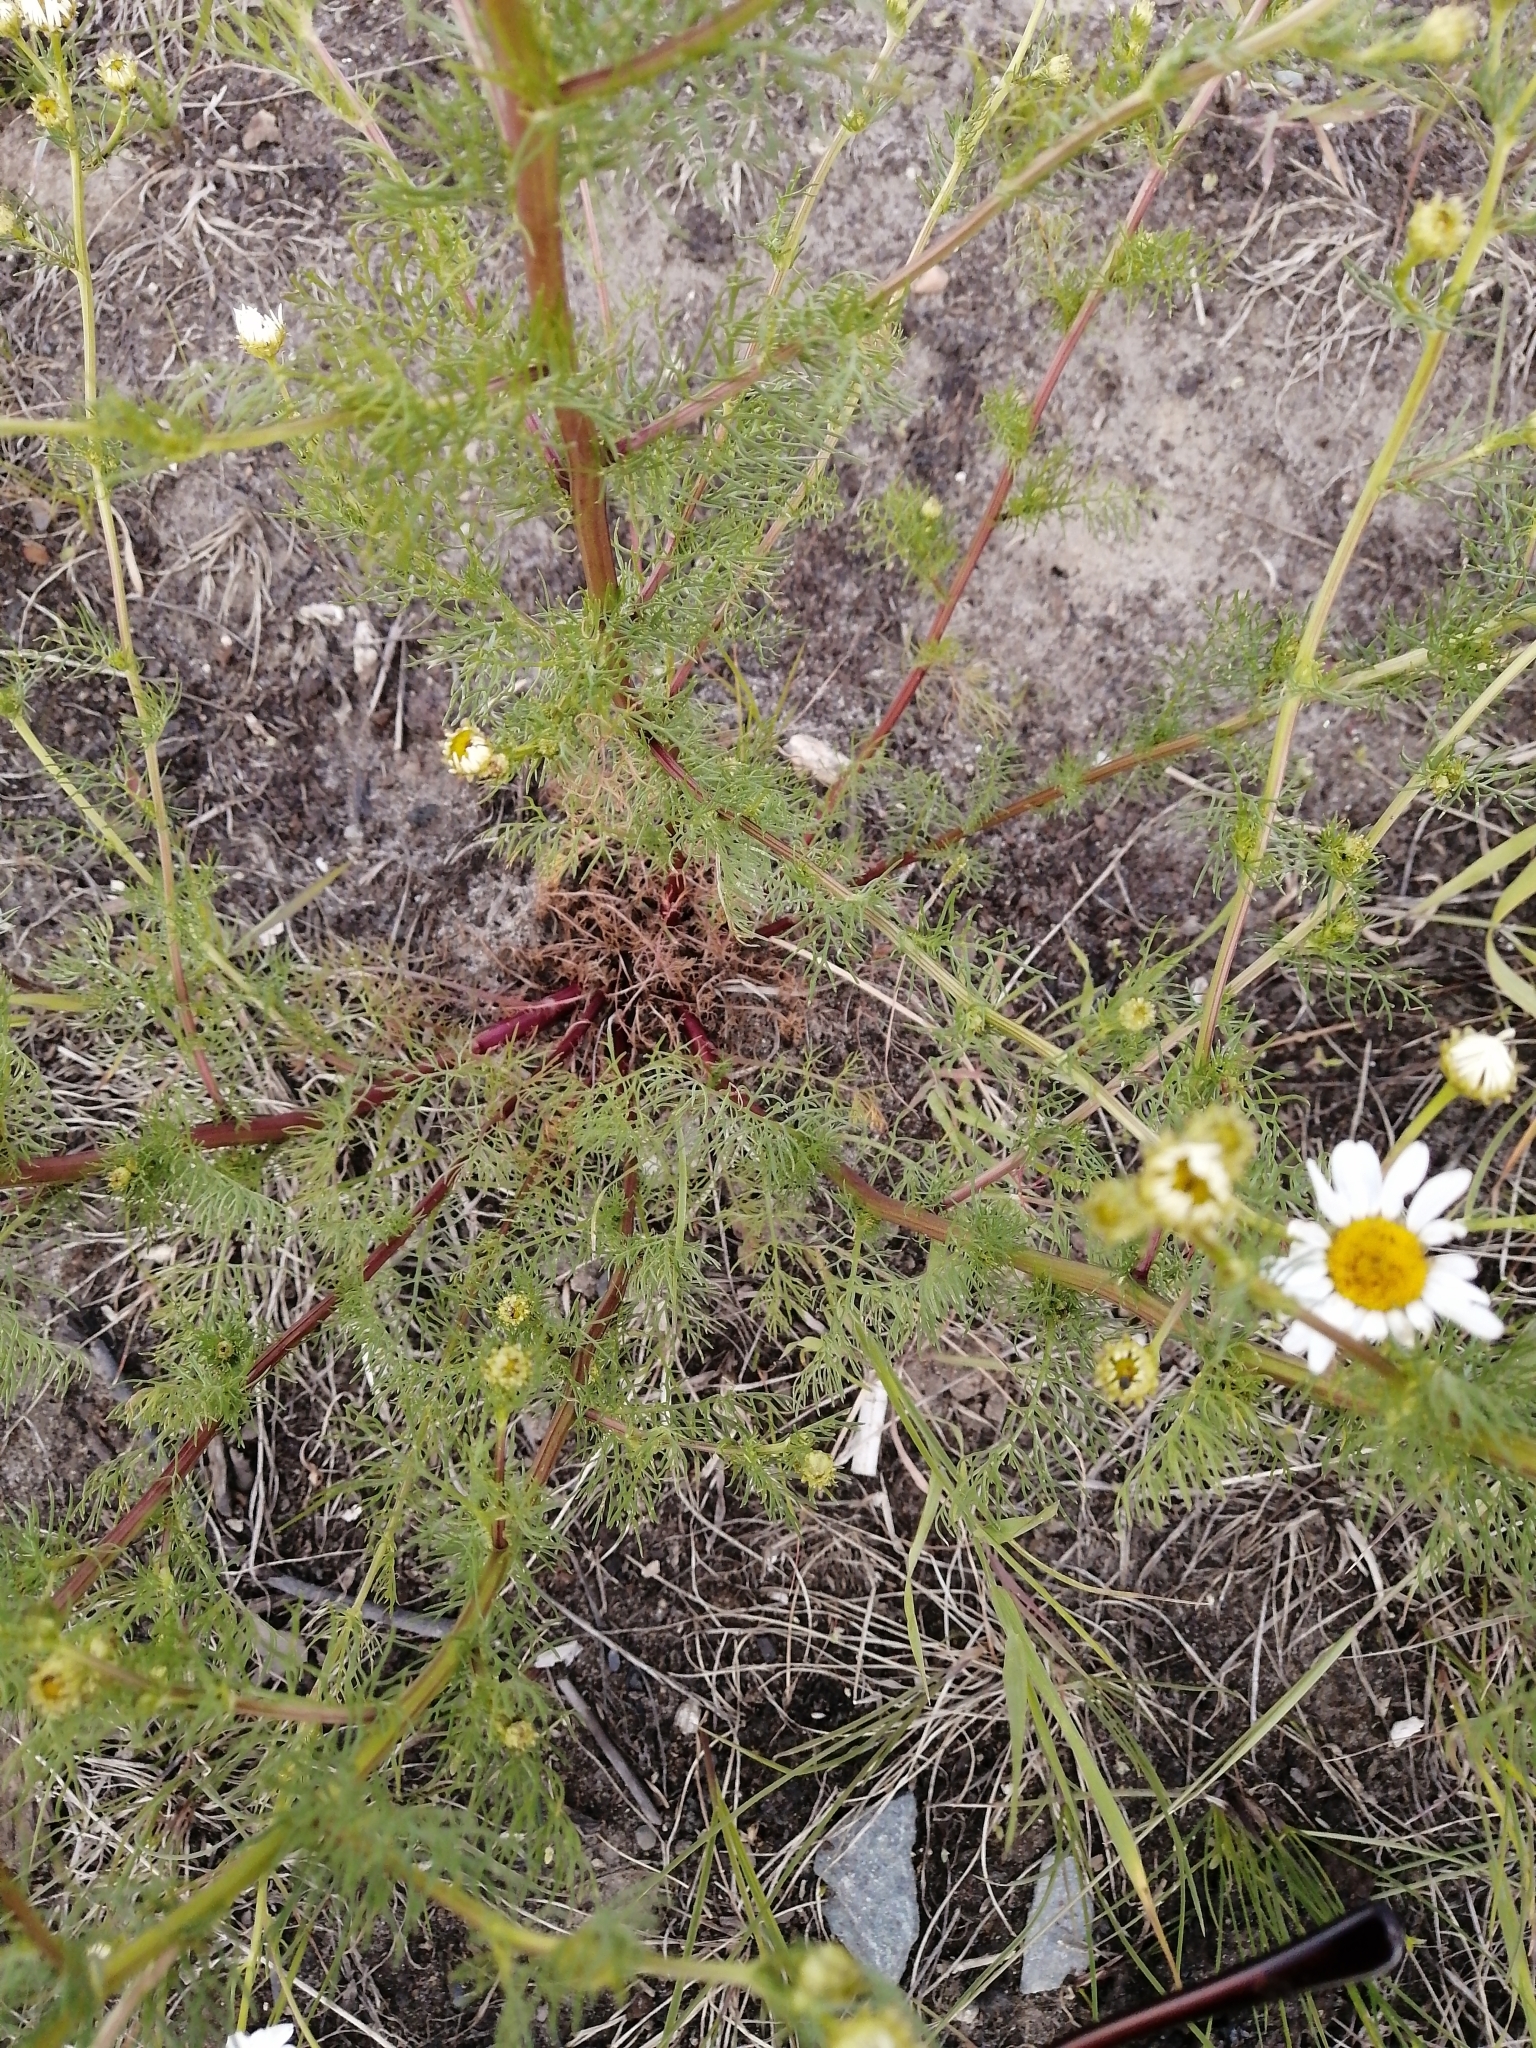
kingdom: Plantae
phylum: Tracheophyta
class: Magnoliopsida
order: Asterales
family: Asteraceae
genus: Tripleurospermum
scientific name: Tripleurospermum inodorum
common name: Scentless mayweed
